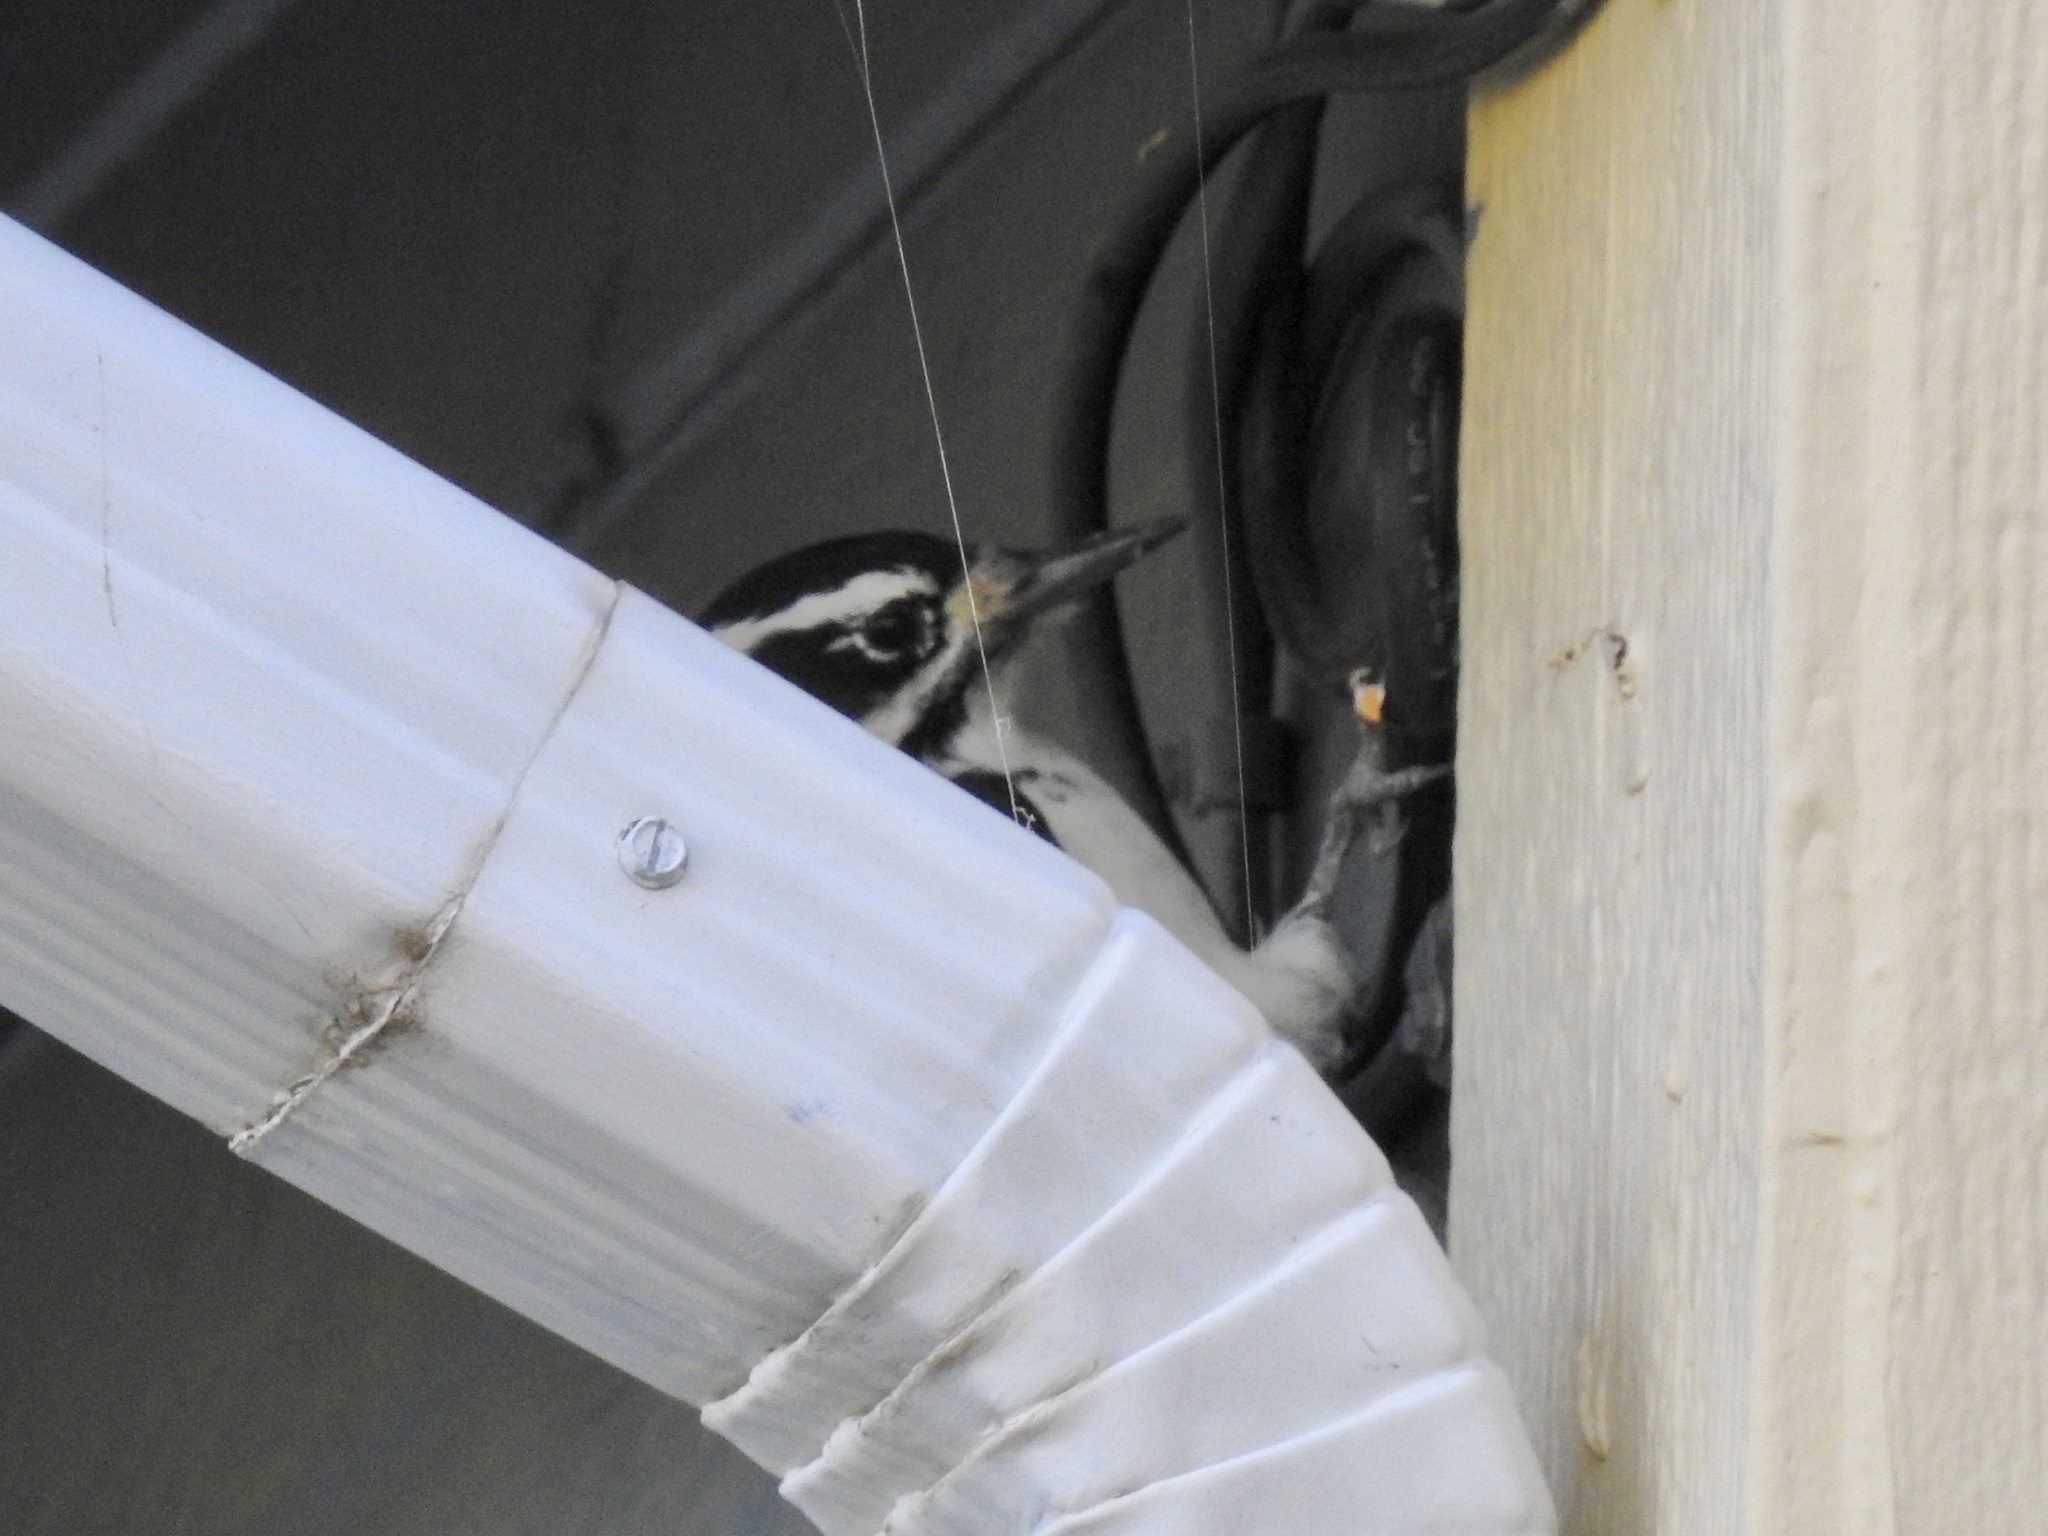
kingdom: Animalia
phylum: Chordata
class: Aves
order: Piciformes
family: Picidae
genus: Leuconotopicus
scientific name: Leuconotopicus villosus
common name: Hairy woodpecker
